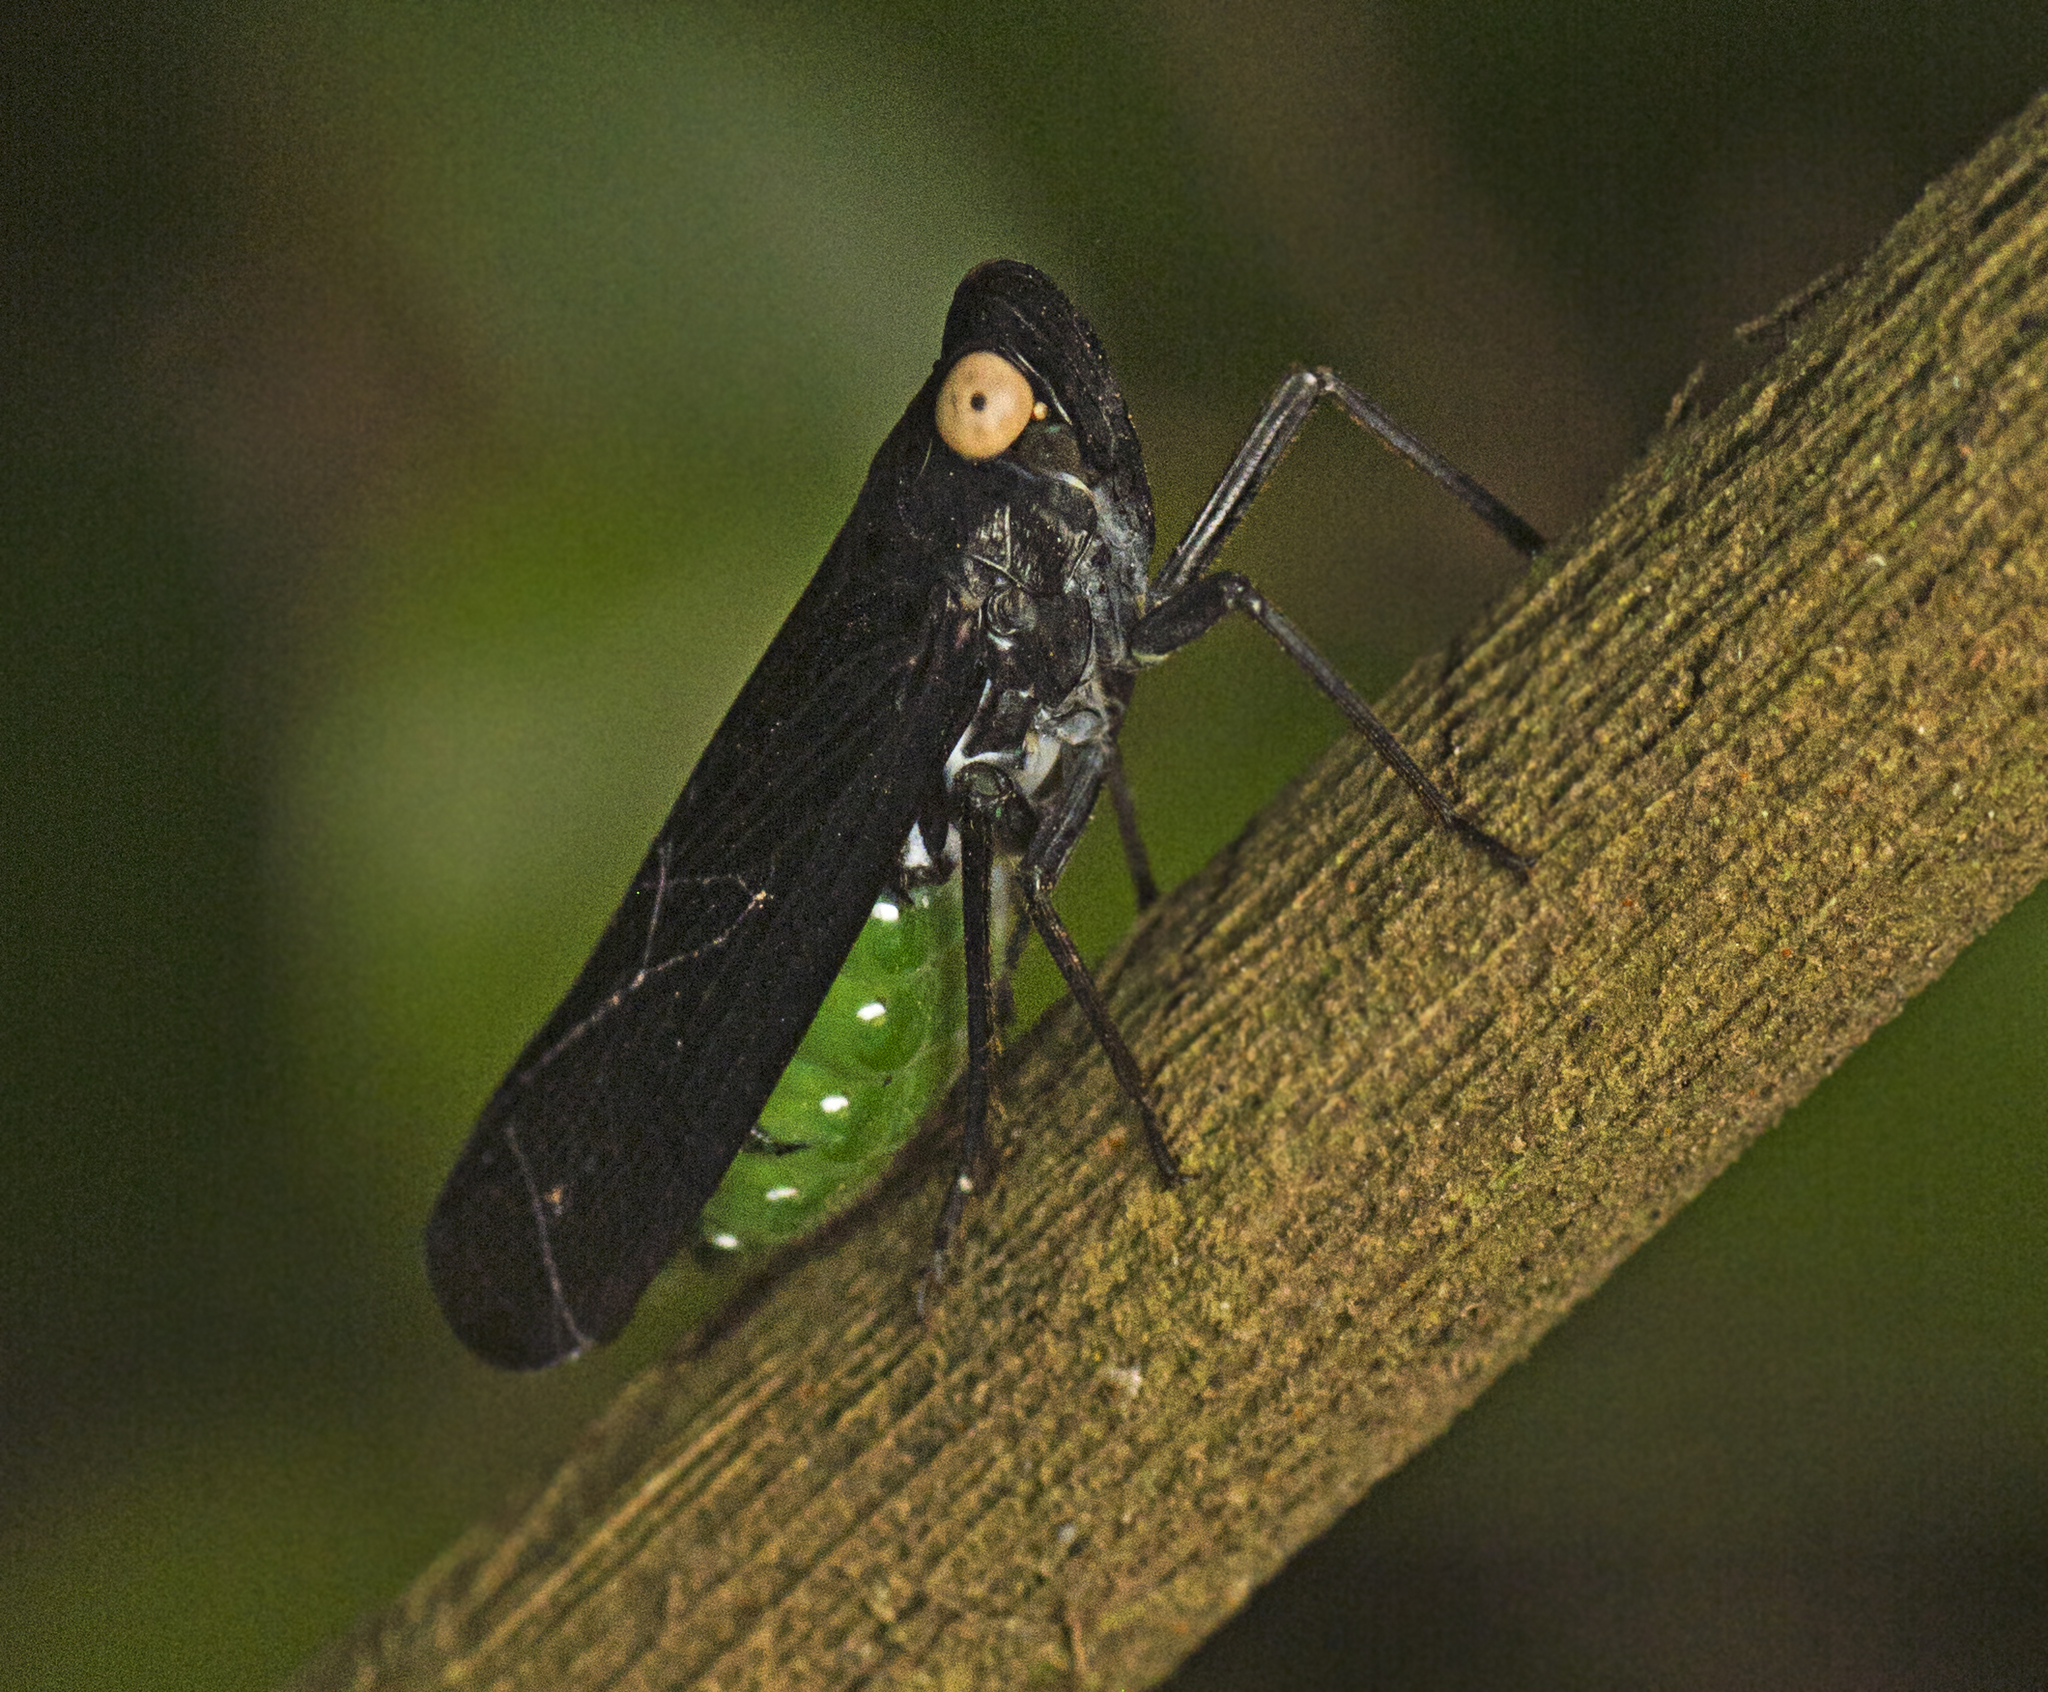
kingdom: Animalia
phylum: Arthropoda
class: Insecta
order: Hemiptera
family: Fulgoridae
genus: Desudaba
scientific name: Desudaba psittacus
